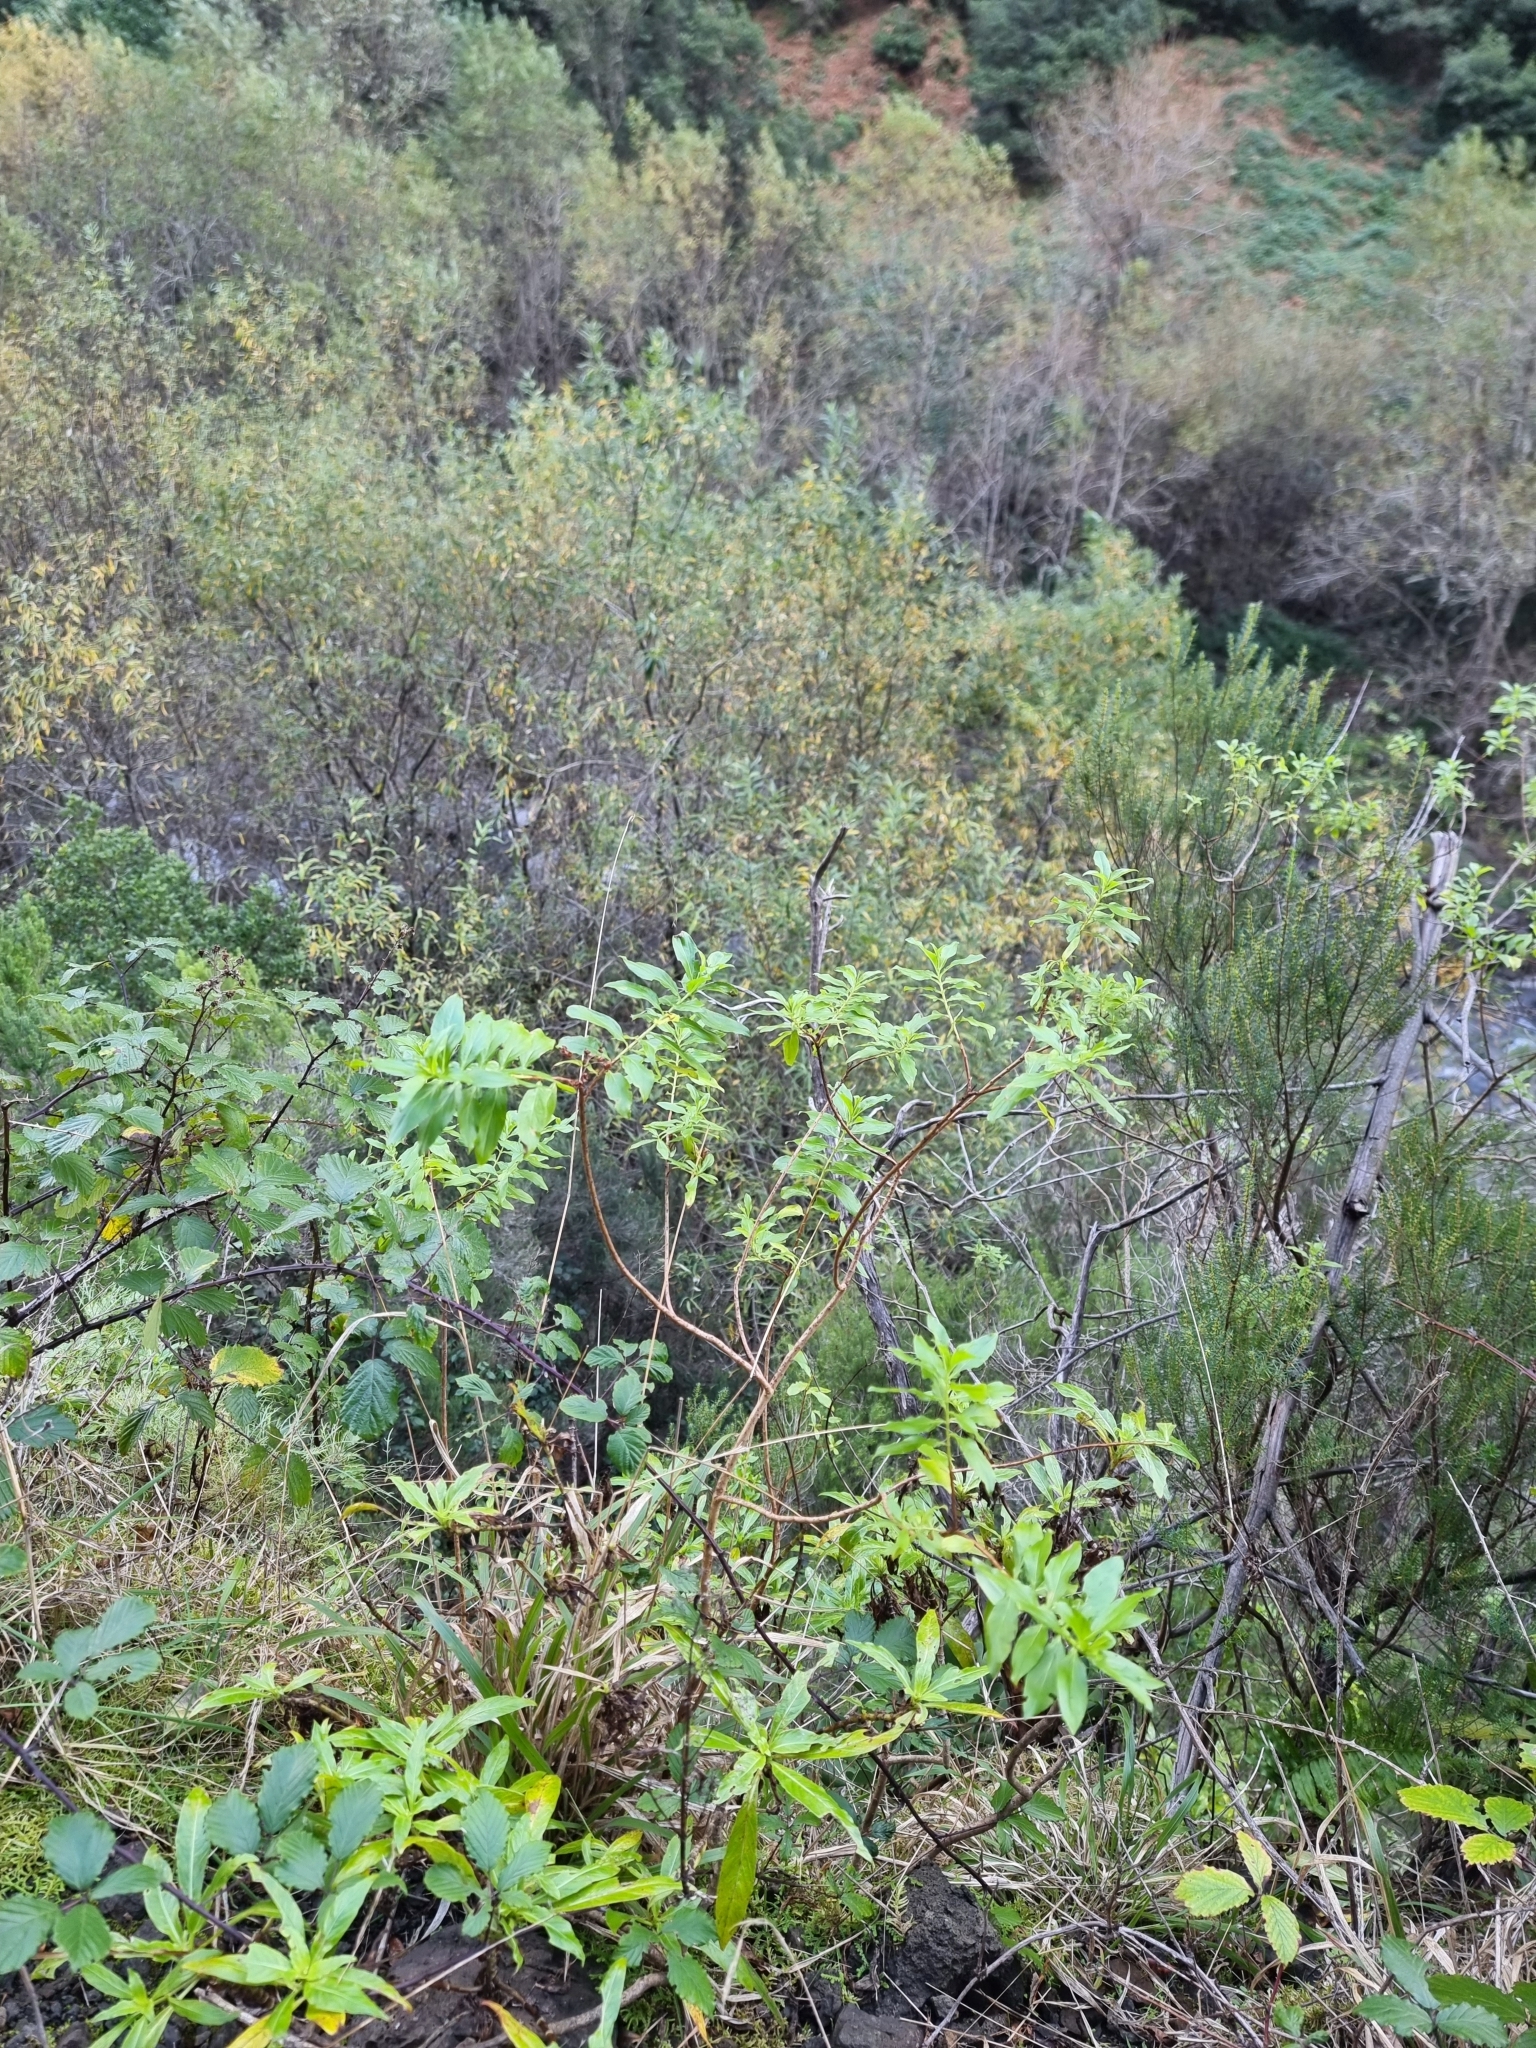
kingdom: Plantae
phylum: Tracheophyta
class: Magnoliopsida
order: Malpighiales
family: Hypericaceae
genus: Hypericum
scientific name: Hypericum glandulosum
